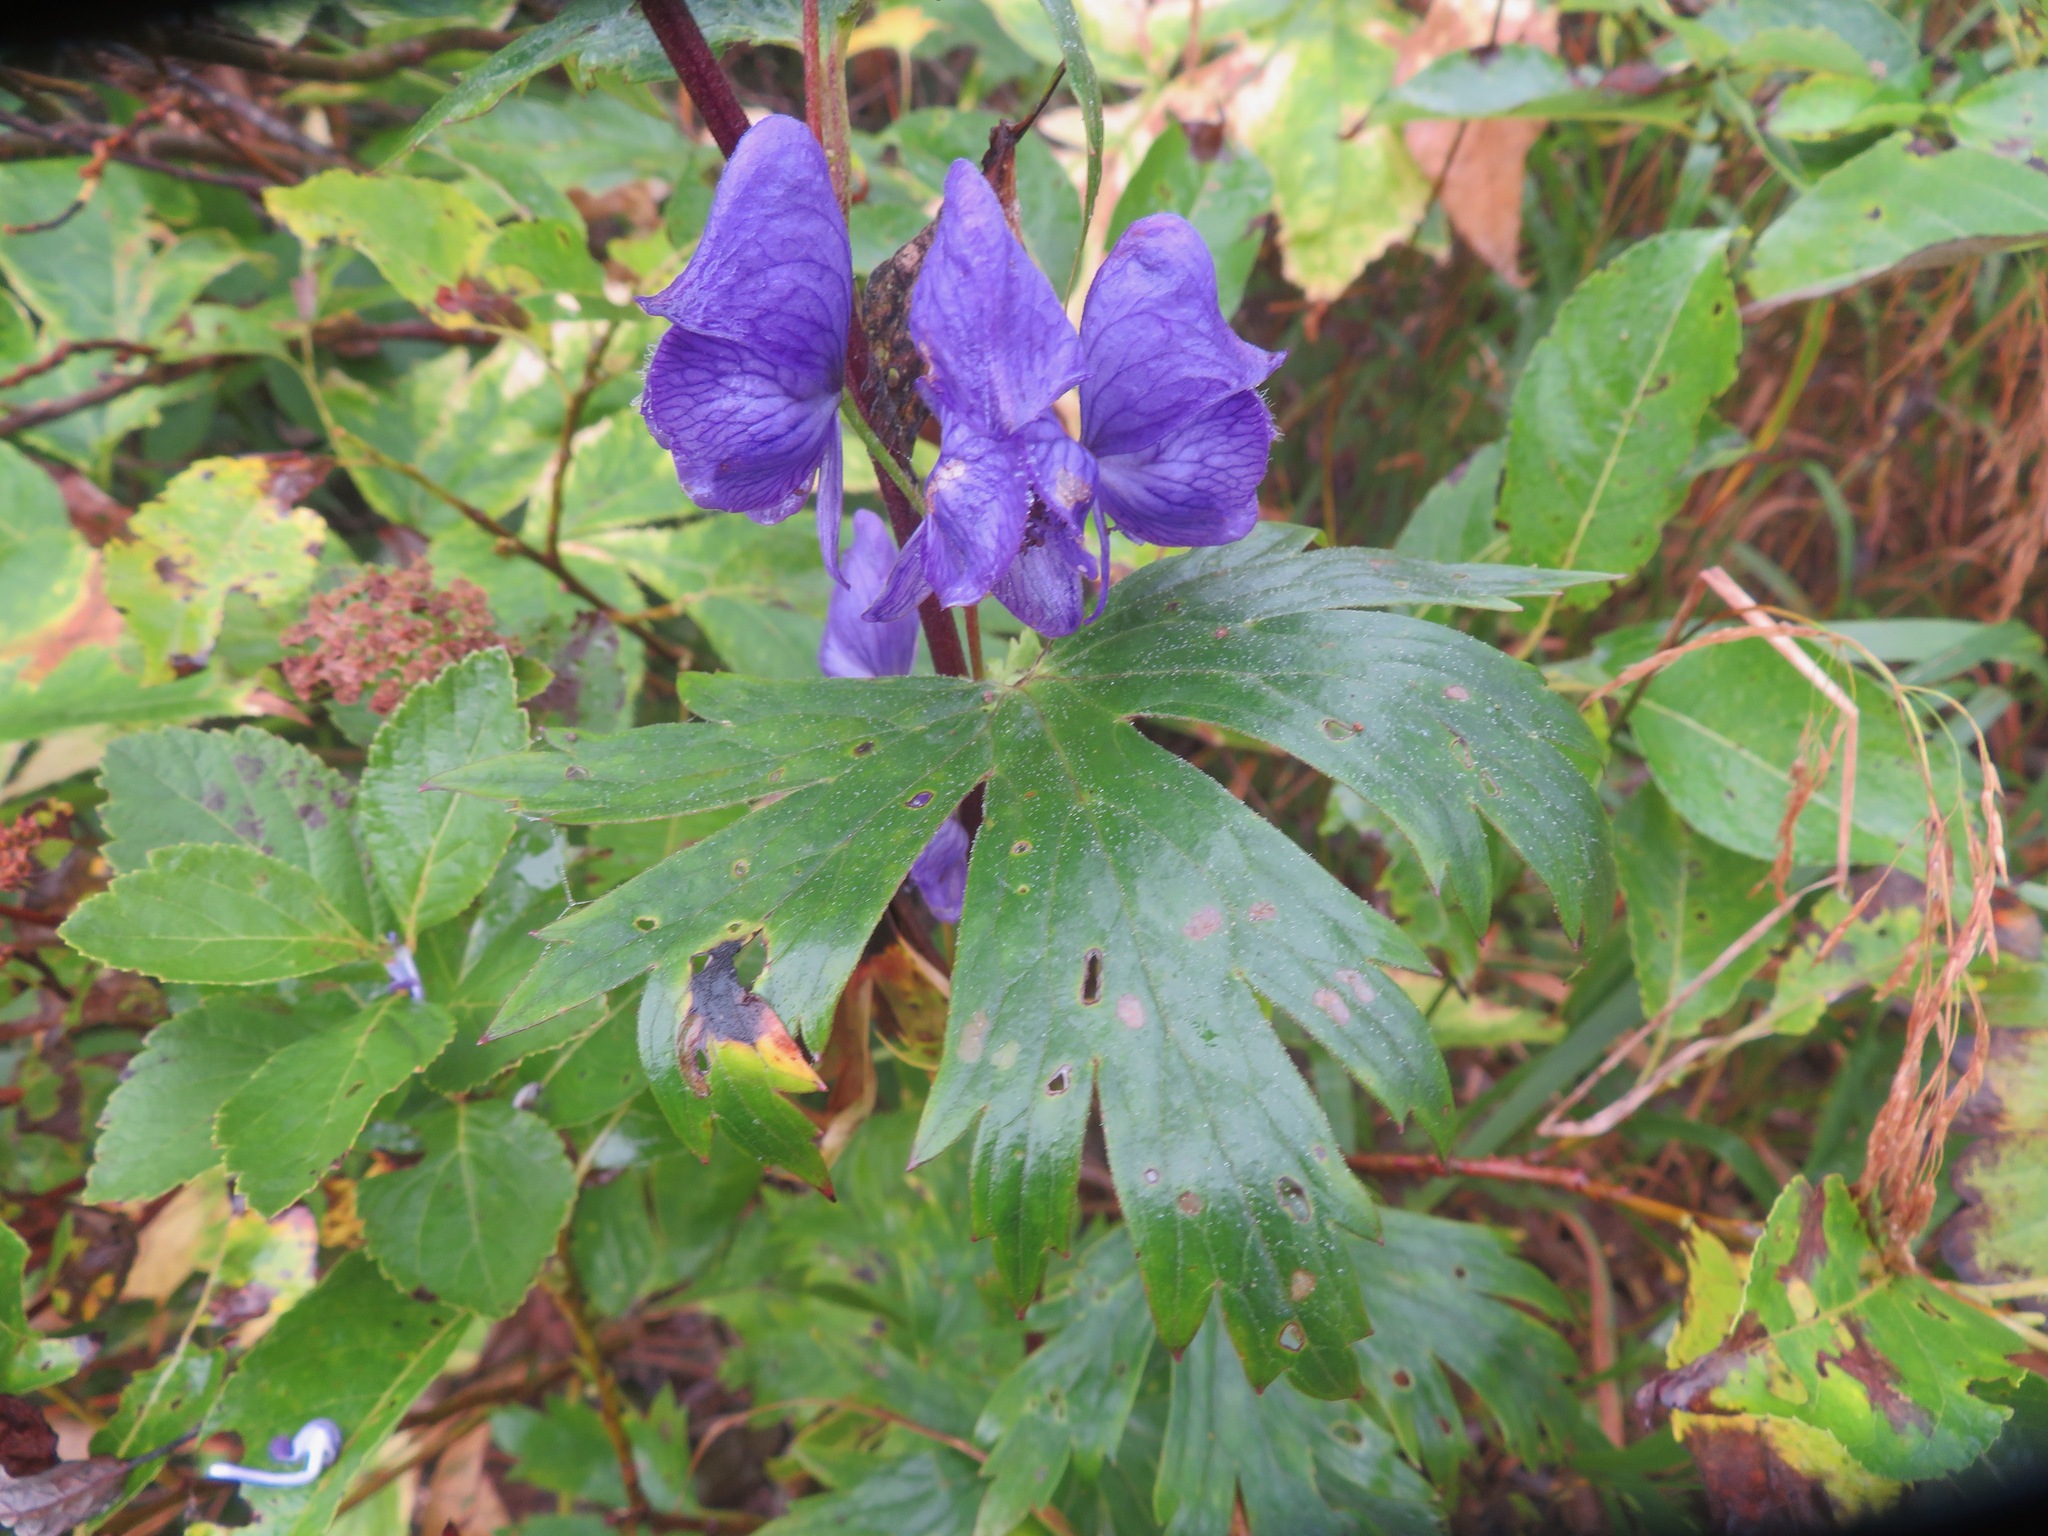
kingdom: Plantae
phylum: Tracheophyta
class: Magnoliopsida
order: Ranunculales
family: Ranunculaceae
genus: Aconitum
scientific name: Aconitum nipponicum
